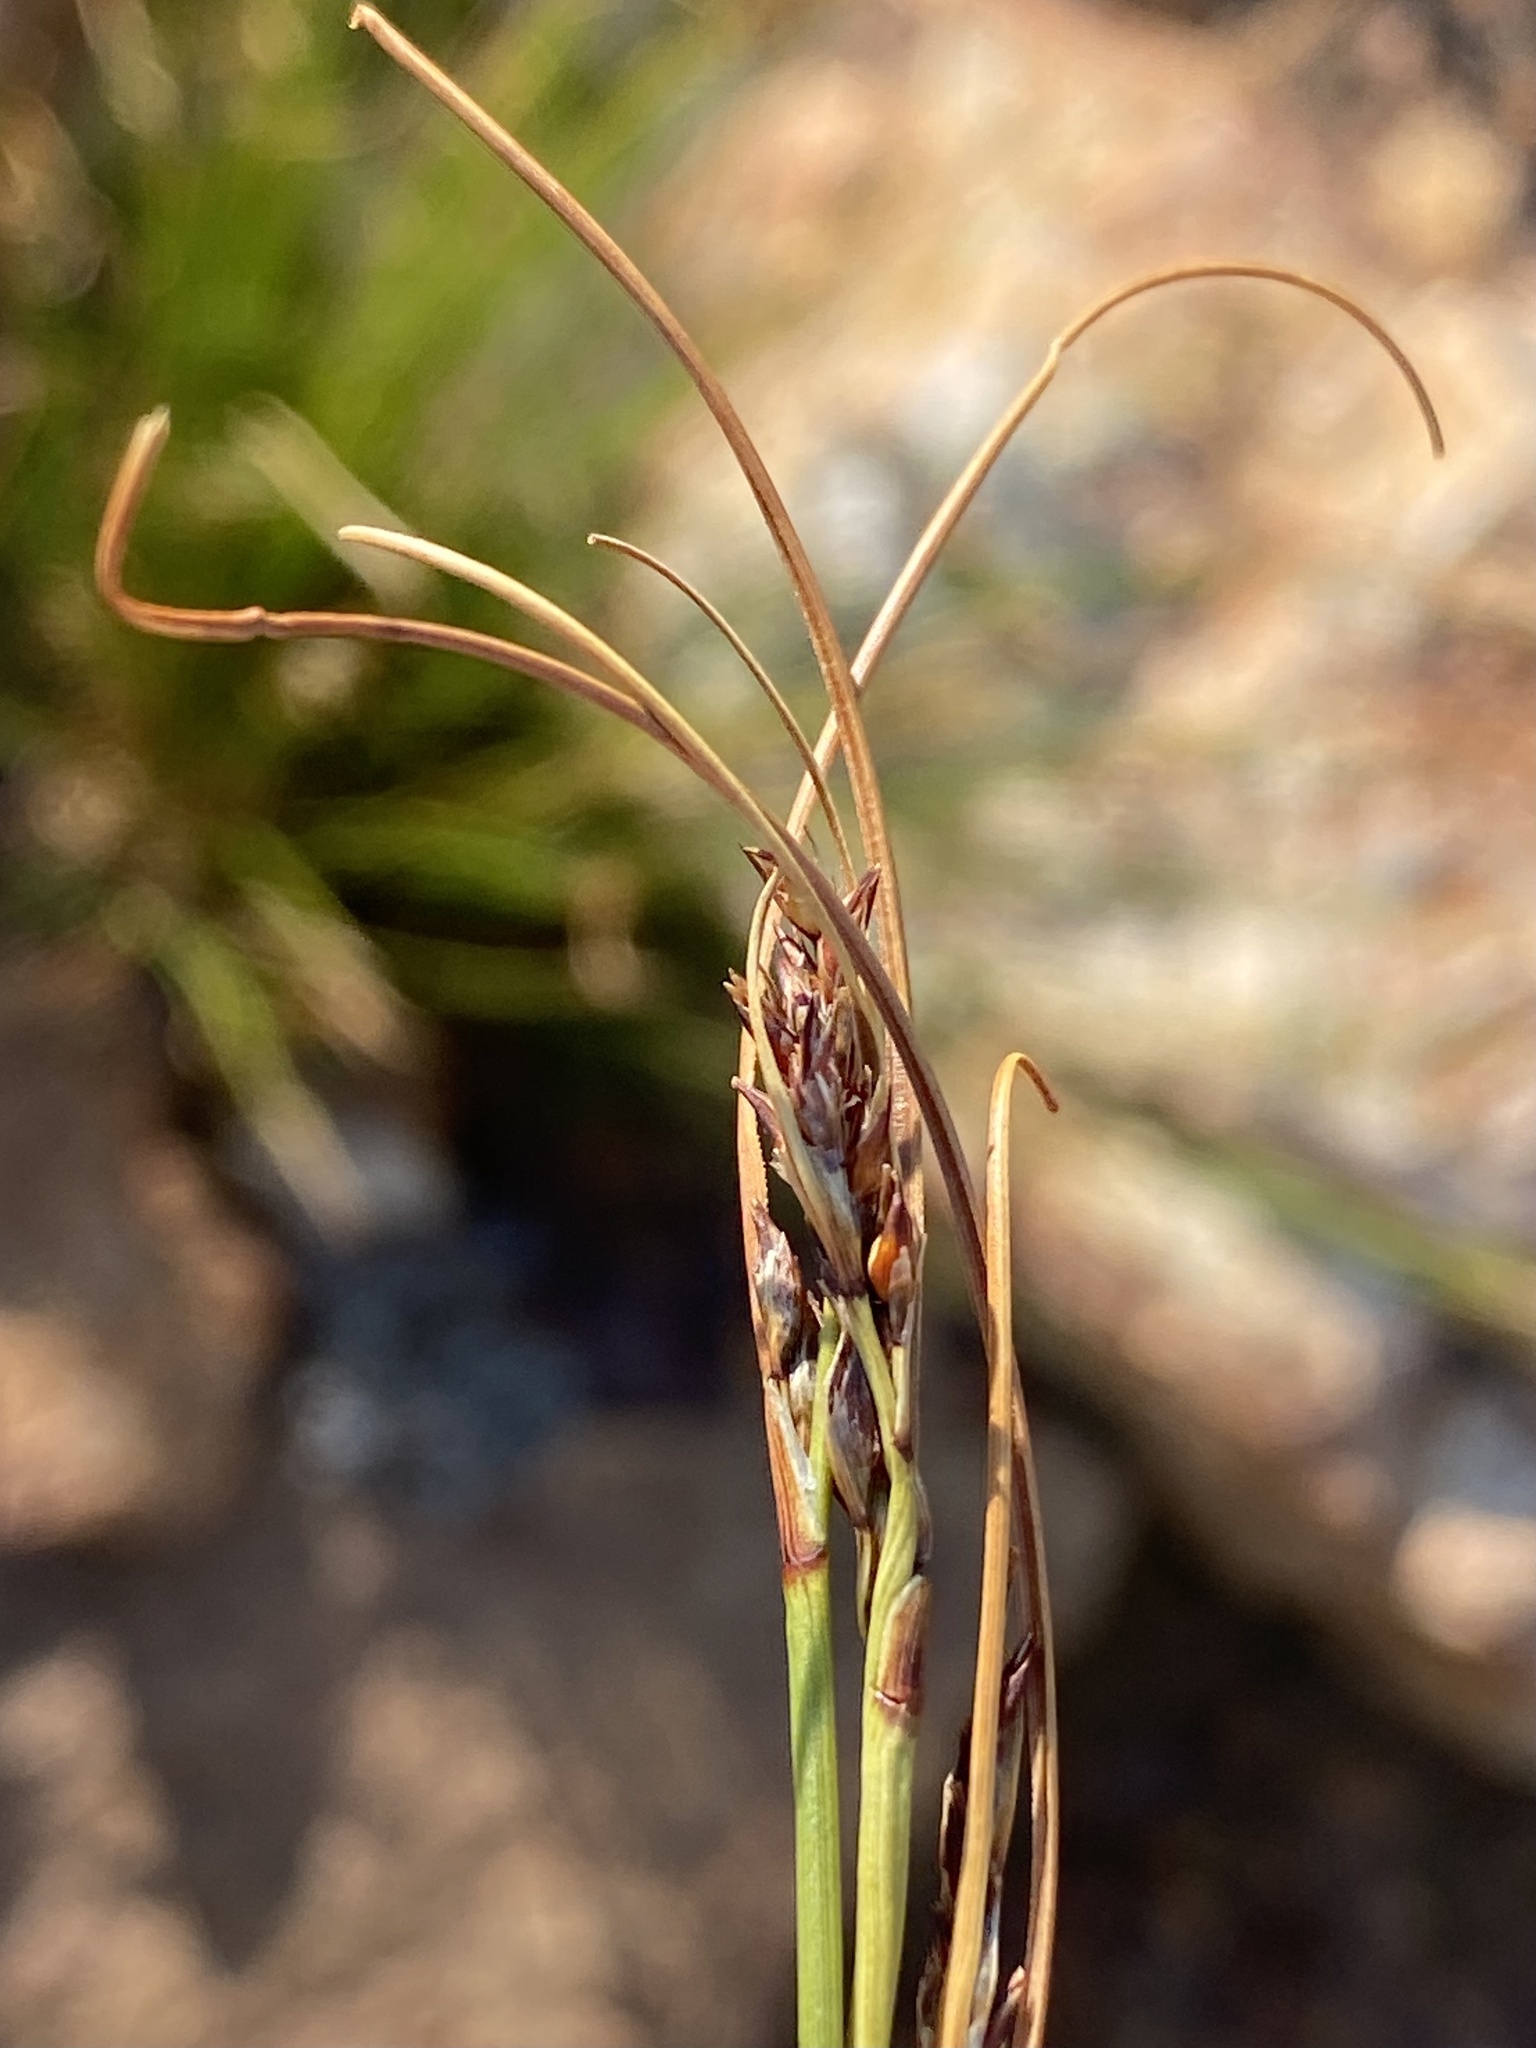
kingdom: Plantae
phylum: Tracheophyta
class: Liliopsida
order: Poales
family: Cyperaceae
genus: Schoenus
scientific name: Schoenus pseudoloreus
